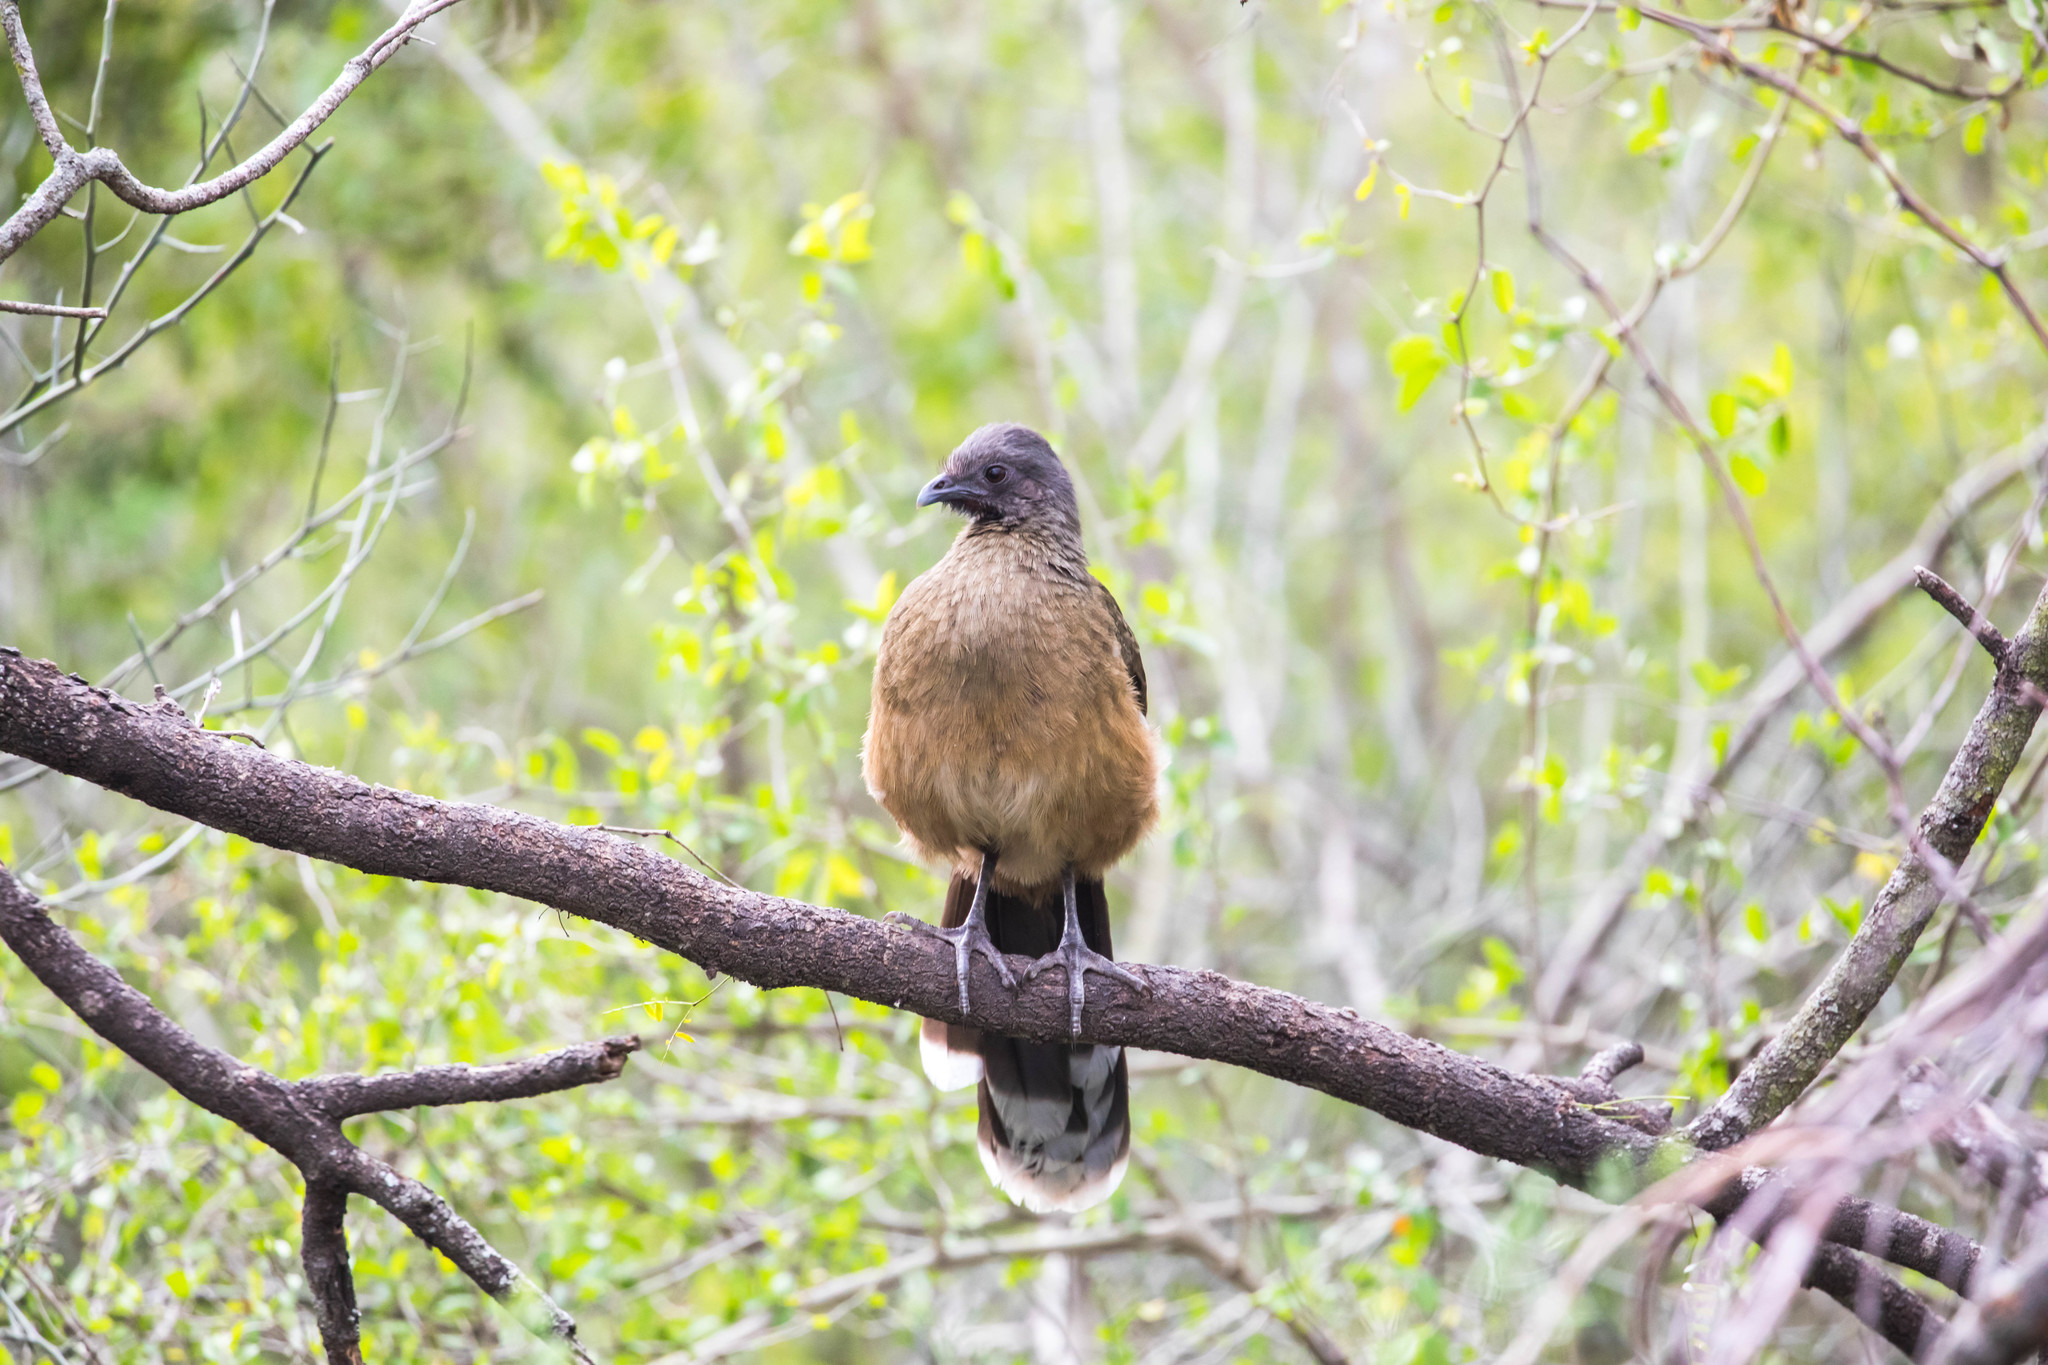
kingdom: Animalia
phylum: Chordata
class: Aves
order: Galliformes
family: Cracidae
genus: Ortalis
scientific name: Ortalis vetula
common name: Plain chachalaca
